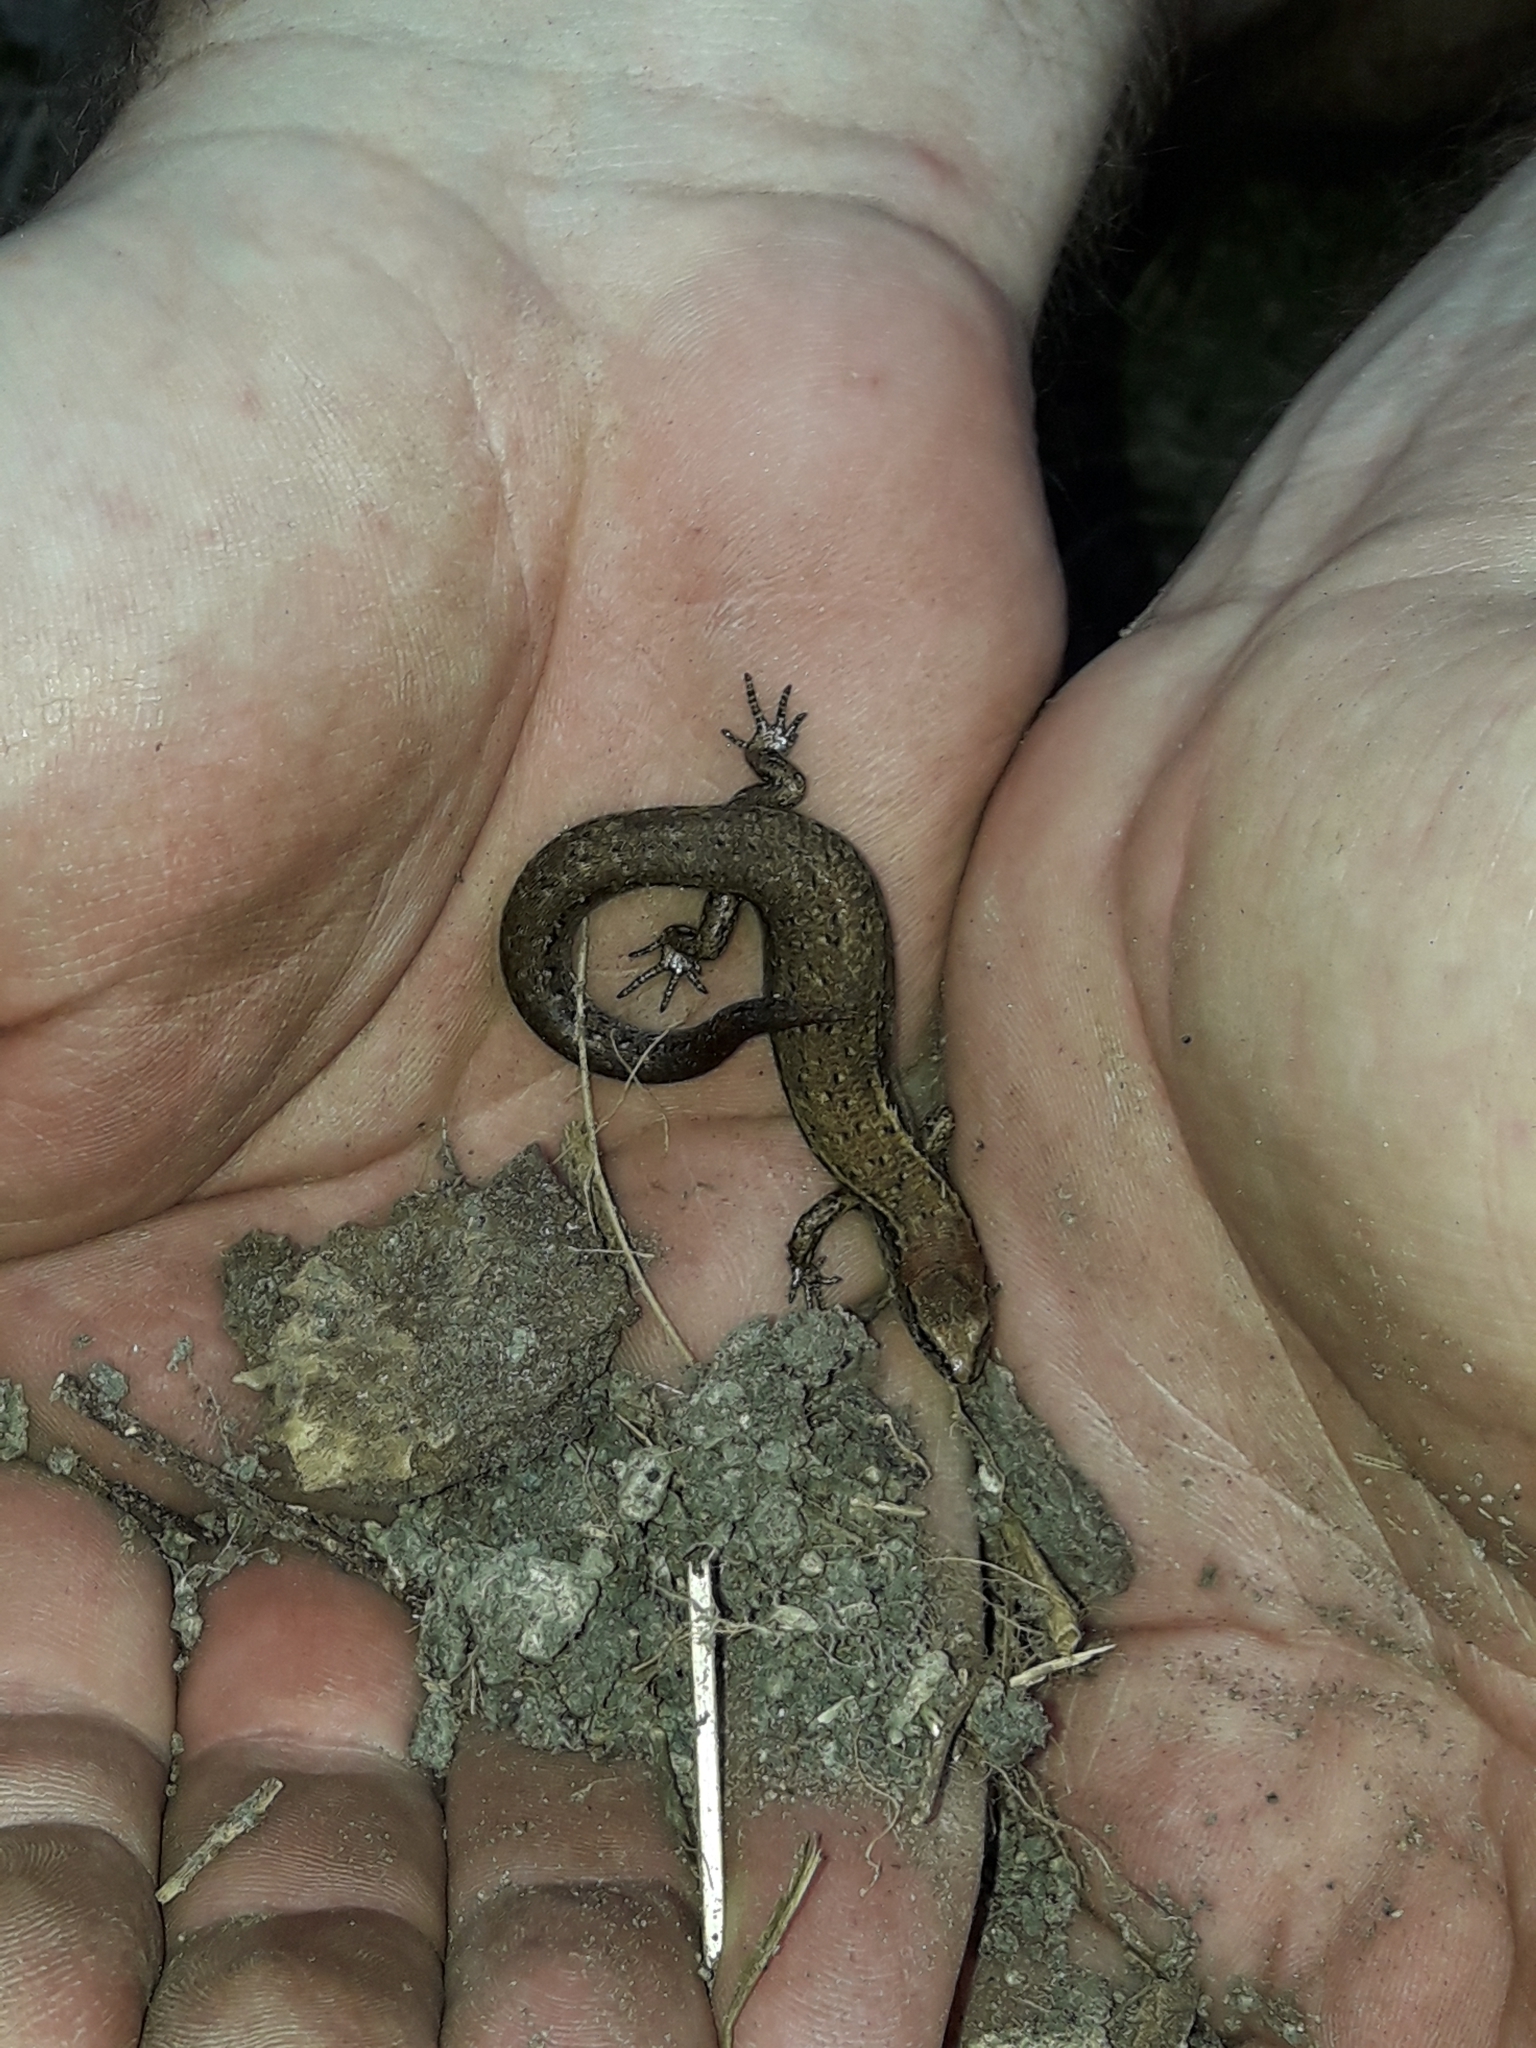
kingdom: Animalia
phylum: Chordata
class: Squamata
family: Scincidae
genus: Oligosoma
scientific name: Oligosoma aeneum
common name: Copper skink
